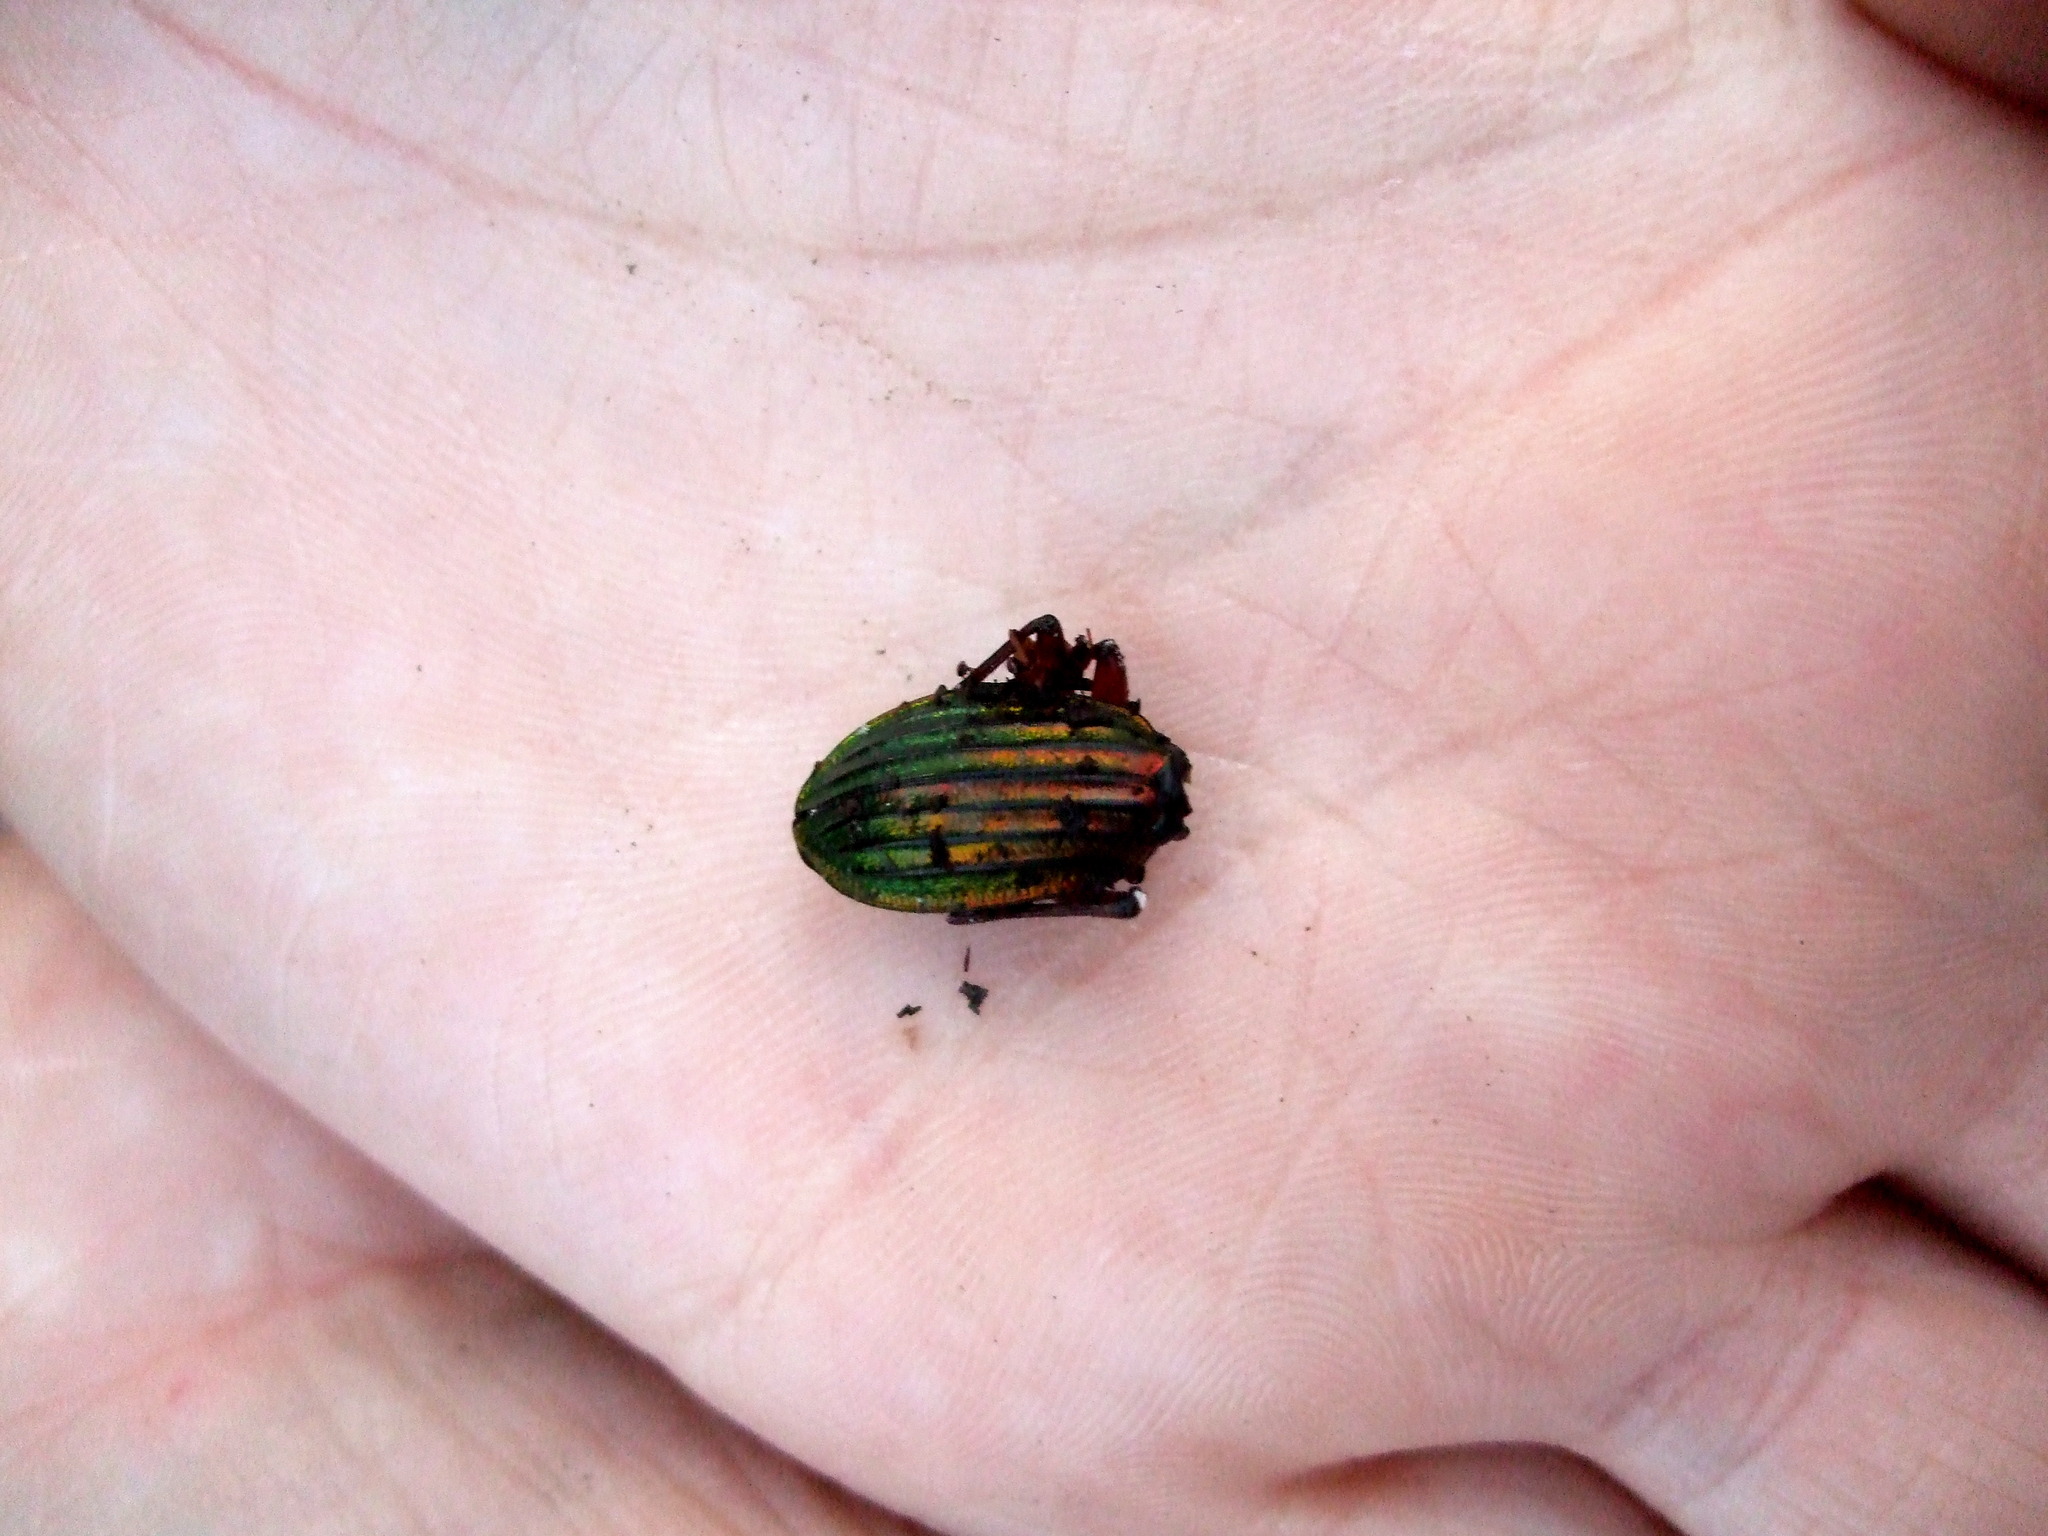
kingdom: Animalia
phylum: Arthropoda
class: Insecta
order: Coleoptera
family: Carabidae
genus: Carabus
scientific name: Carabus auronitens
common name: Carabus auronitens
